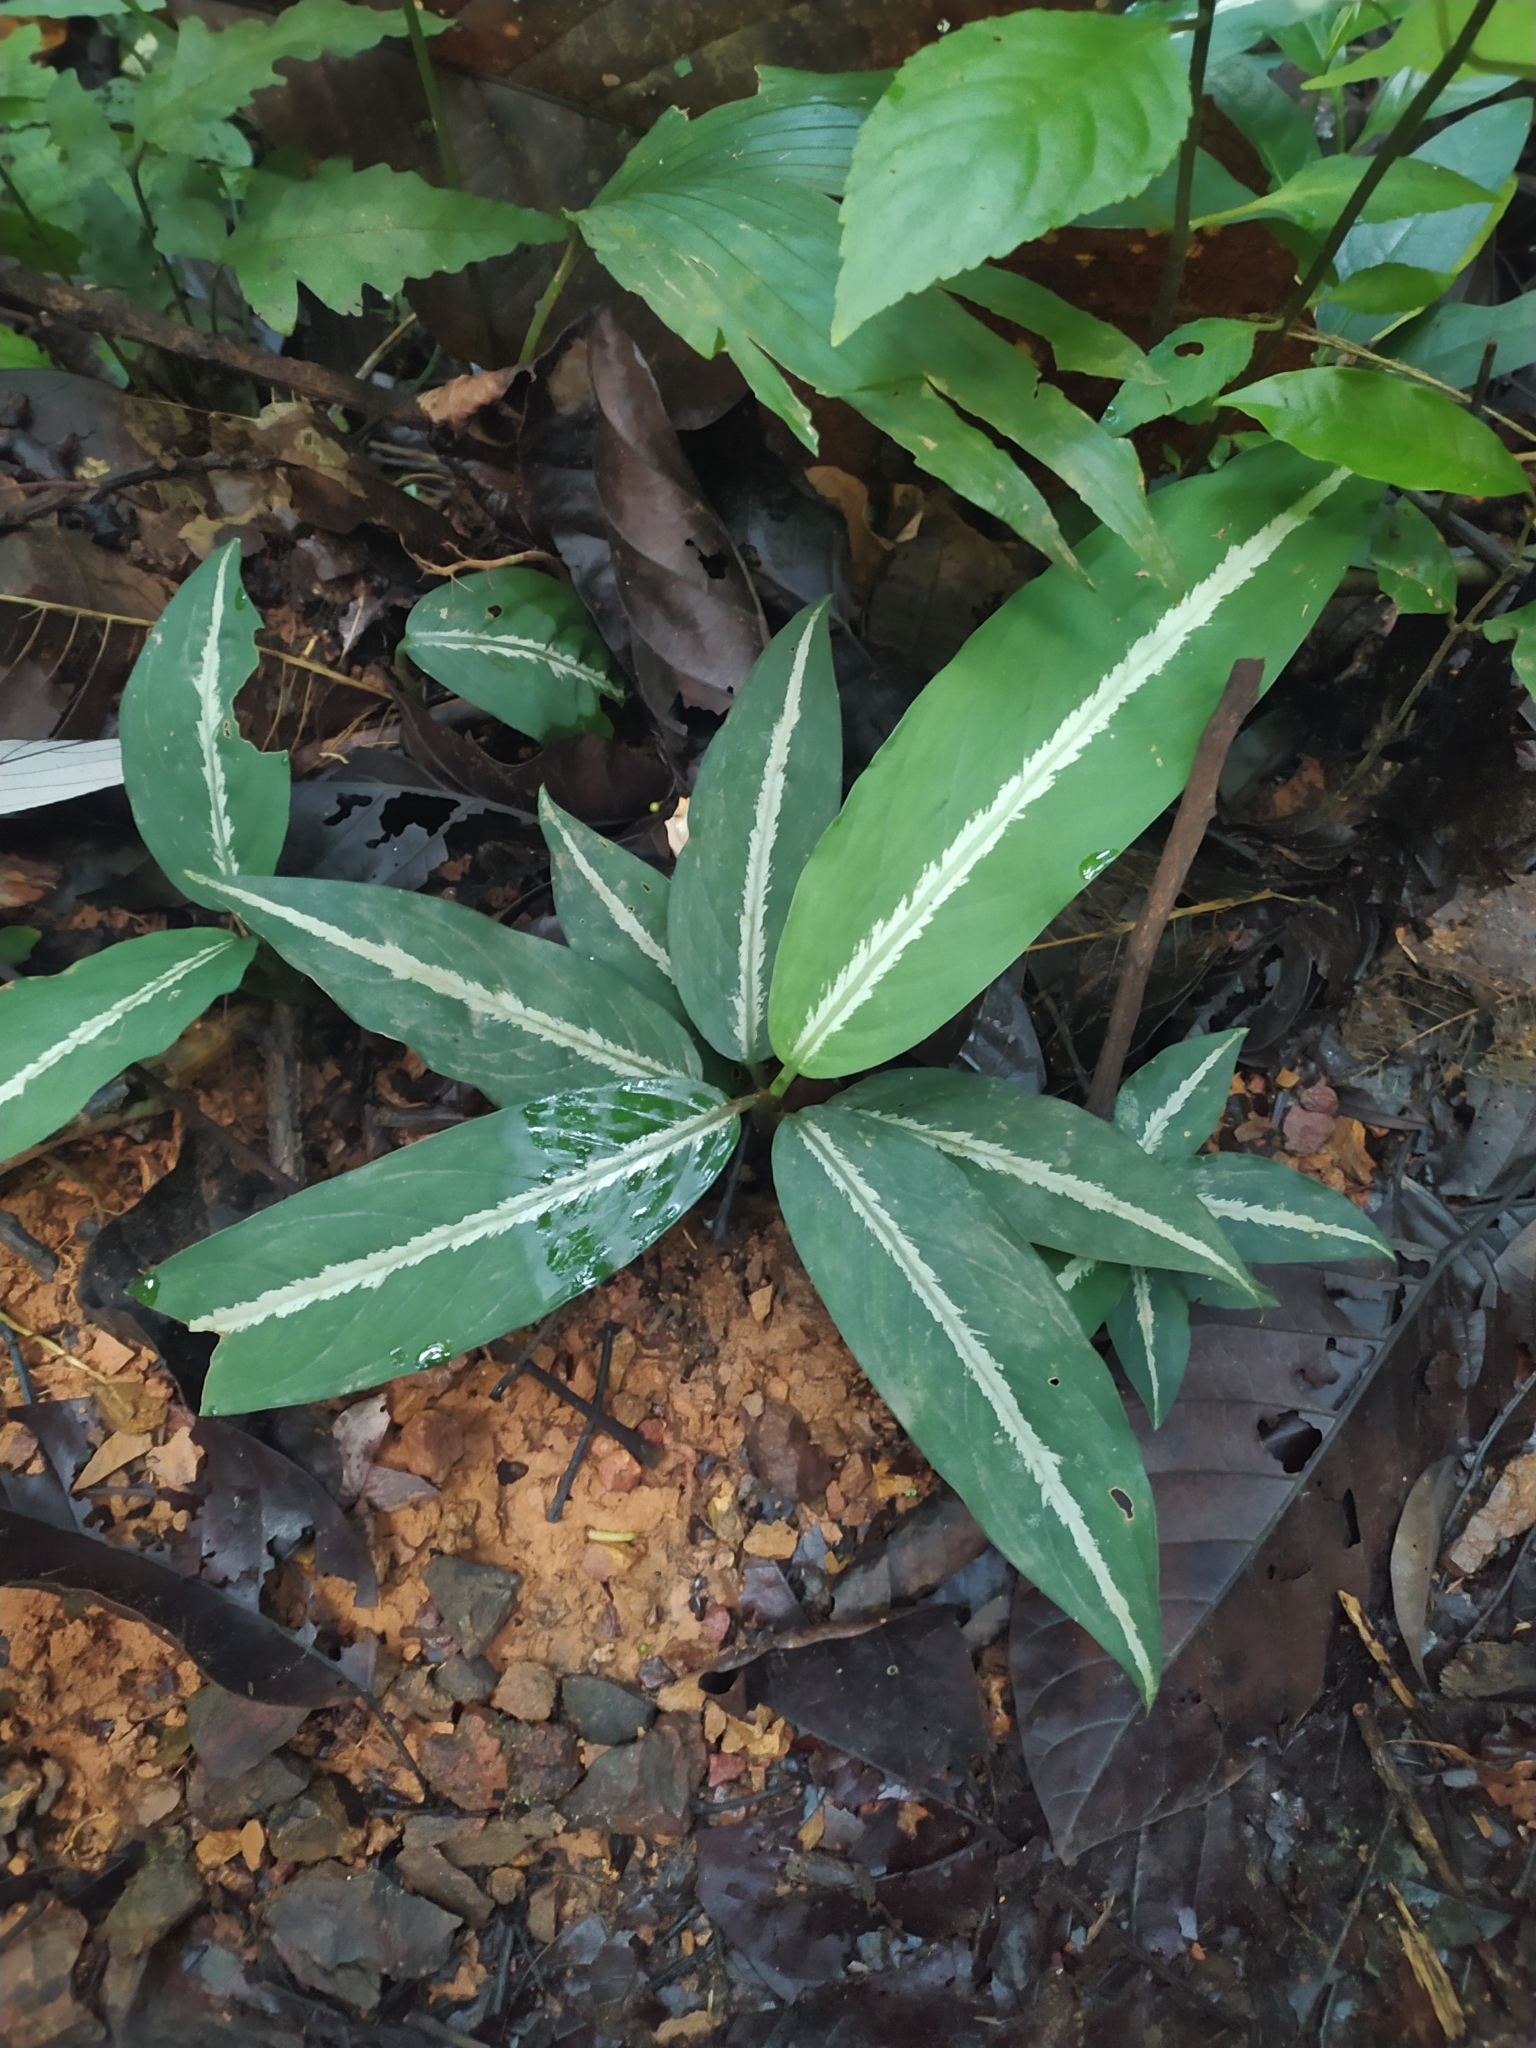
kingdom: Plantae
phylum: Tracheophyta
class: Liliopsida
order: Alismatales
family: Araceae
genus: Dieffenbachia
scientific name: Dieffenbachia
